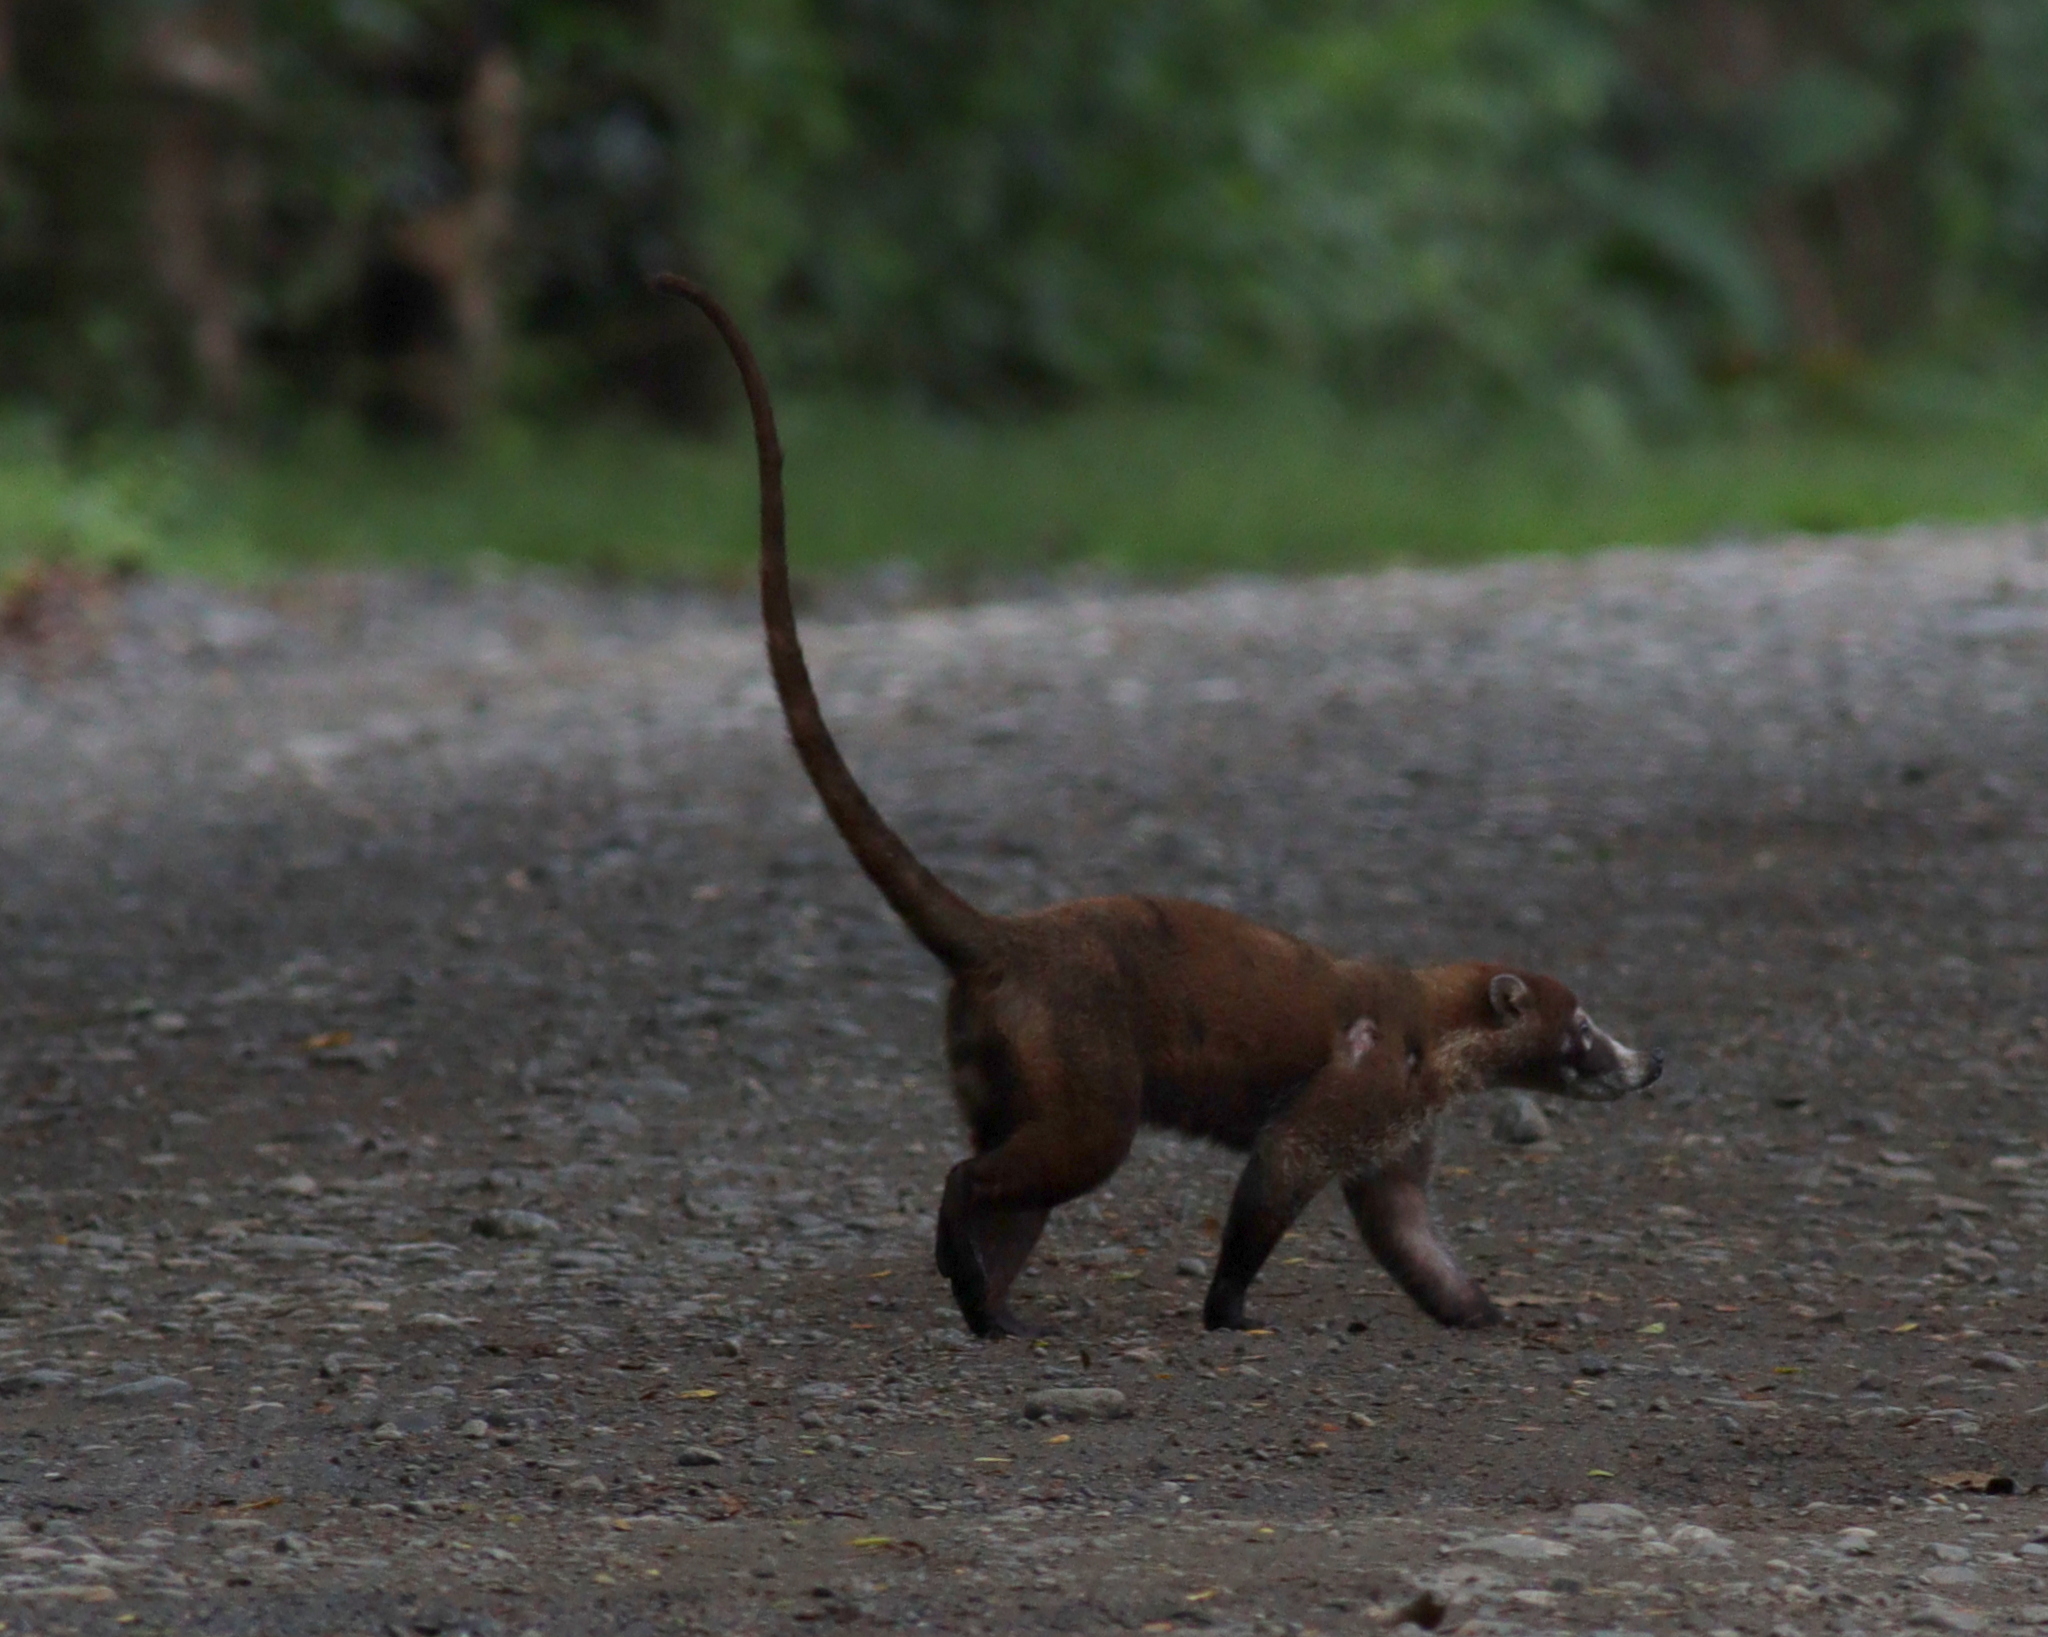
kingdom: Animalia
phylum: Chordata
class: Mammalia
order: Carnivora
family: Procyonidae
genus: Nasua
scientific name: Nasua narica
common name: White-nosed coati
